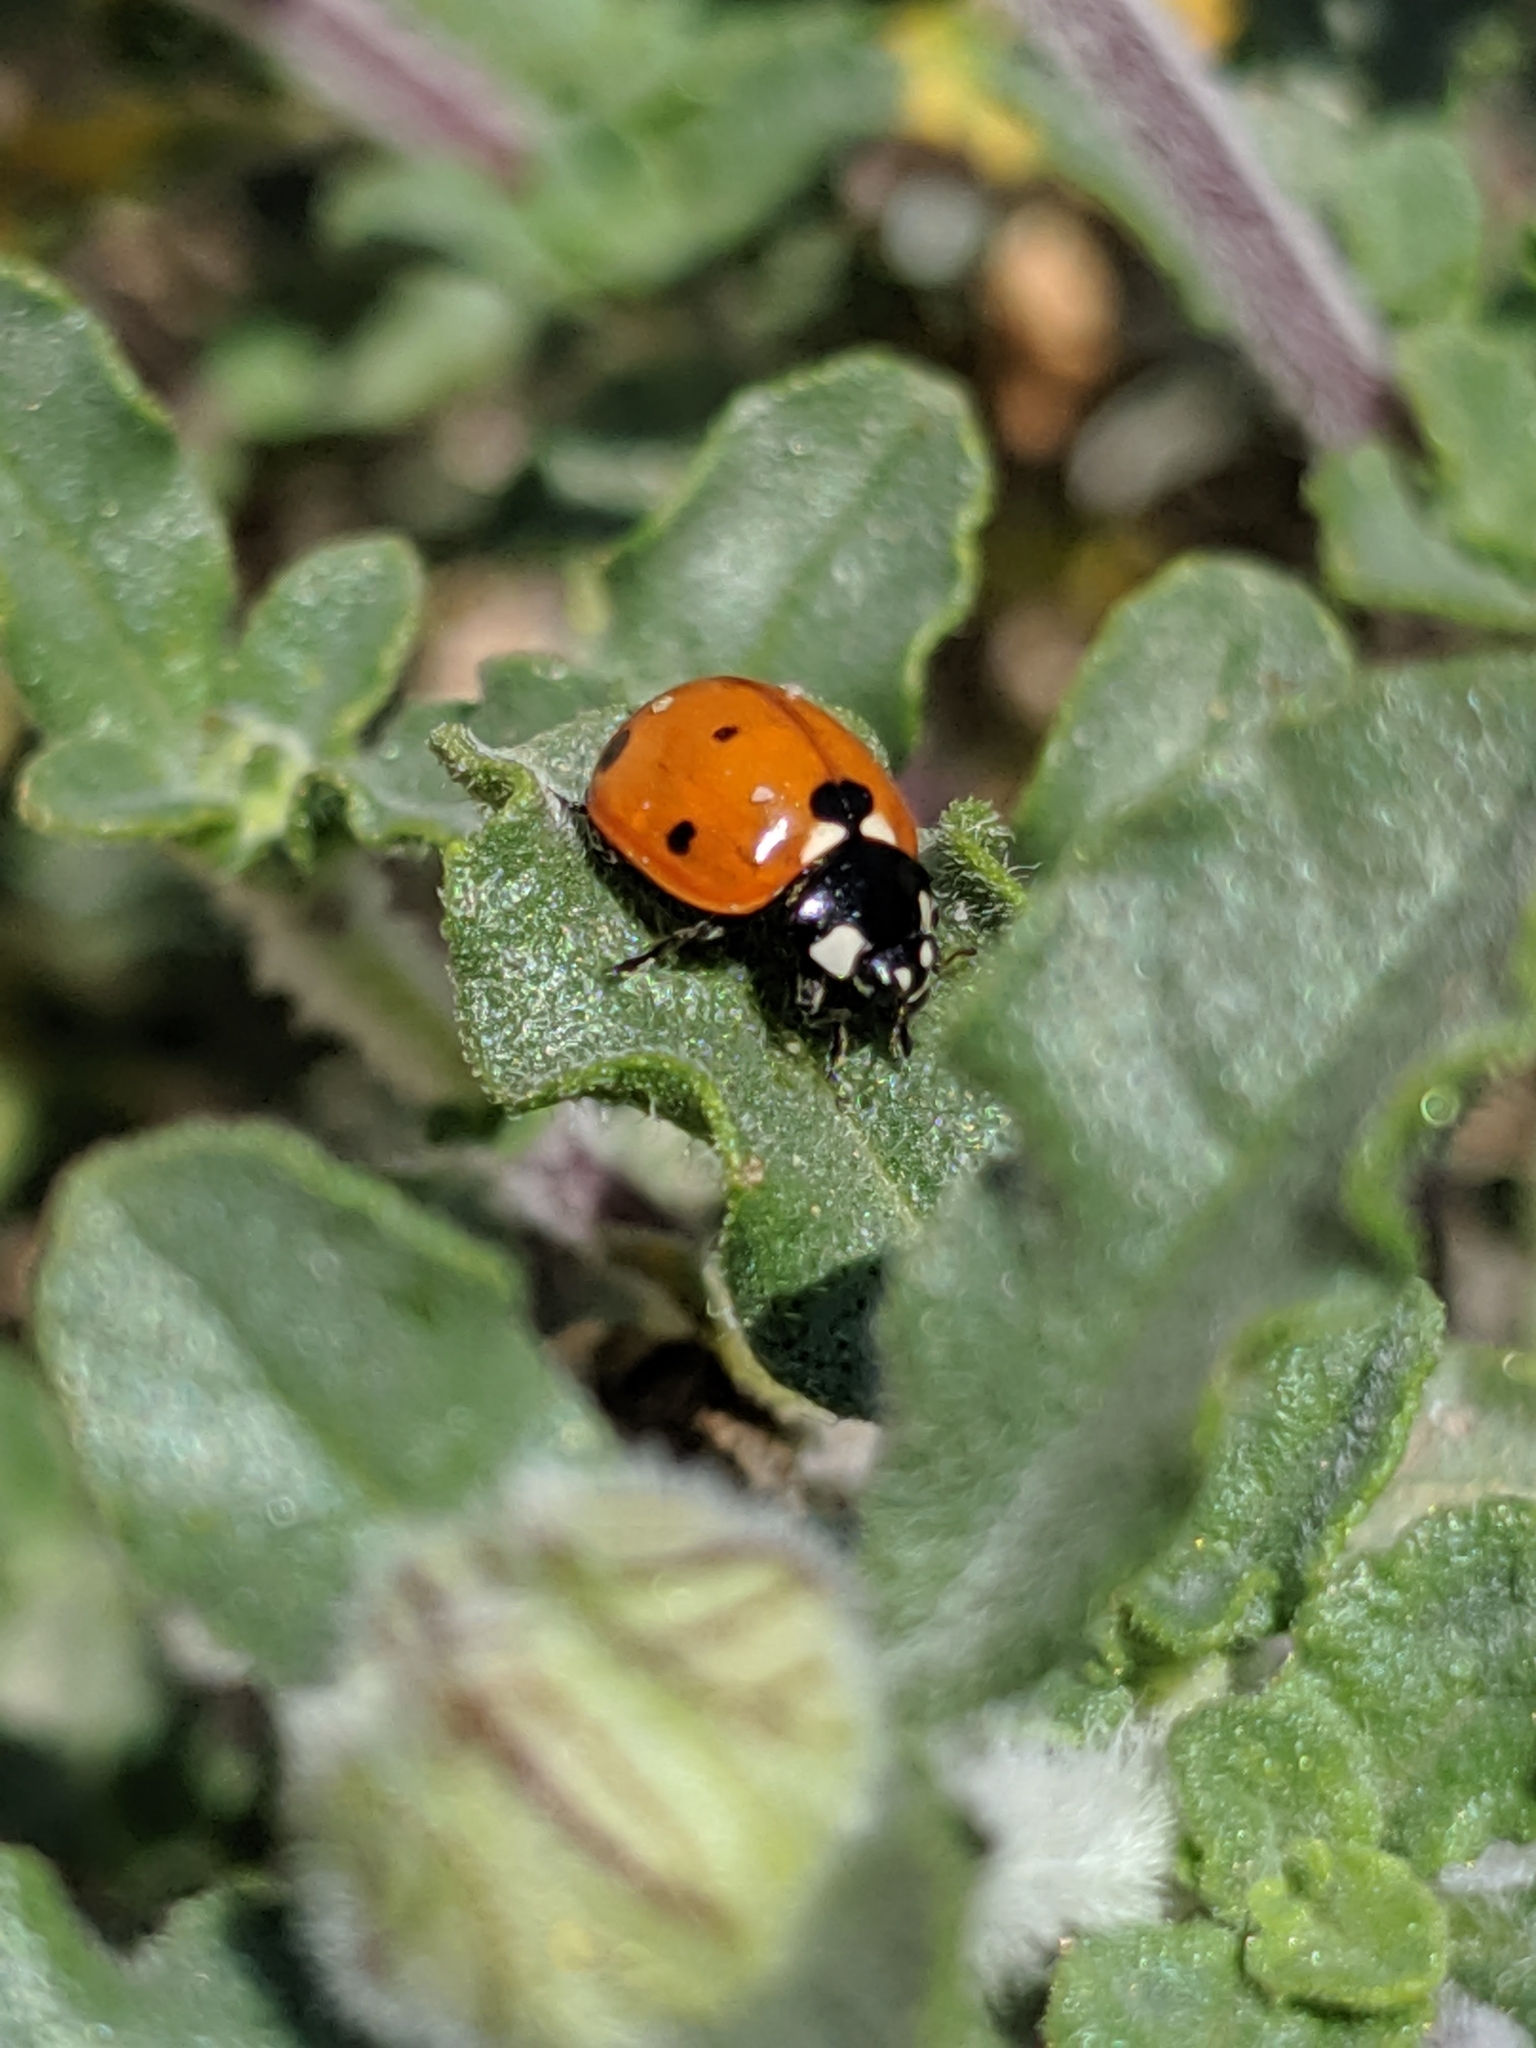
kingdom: Animalia
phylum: Arthropoda
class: Insecta
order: Coleoptera
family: Coccinellidae
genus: Coccinella
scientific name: Coccinella septempunctata
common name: Sevenspotted lady beetle
